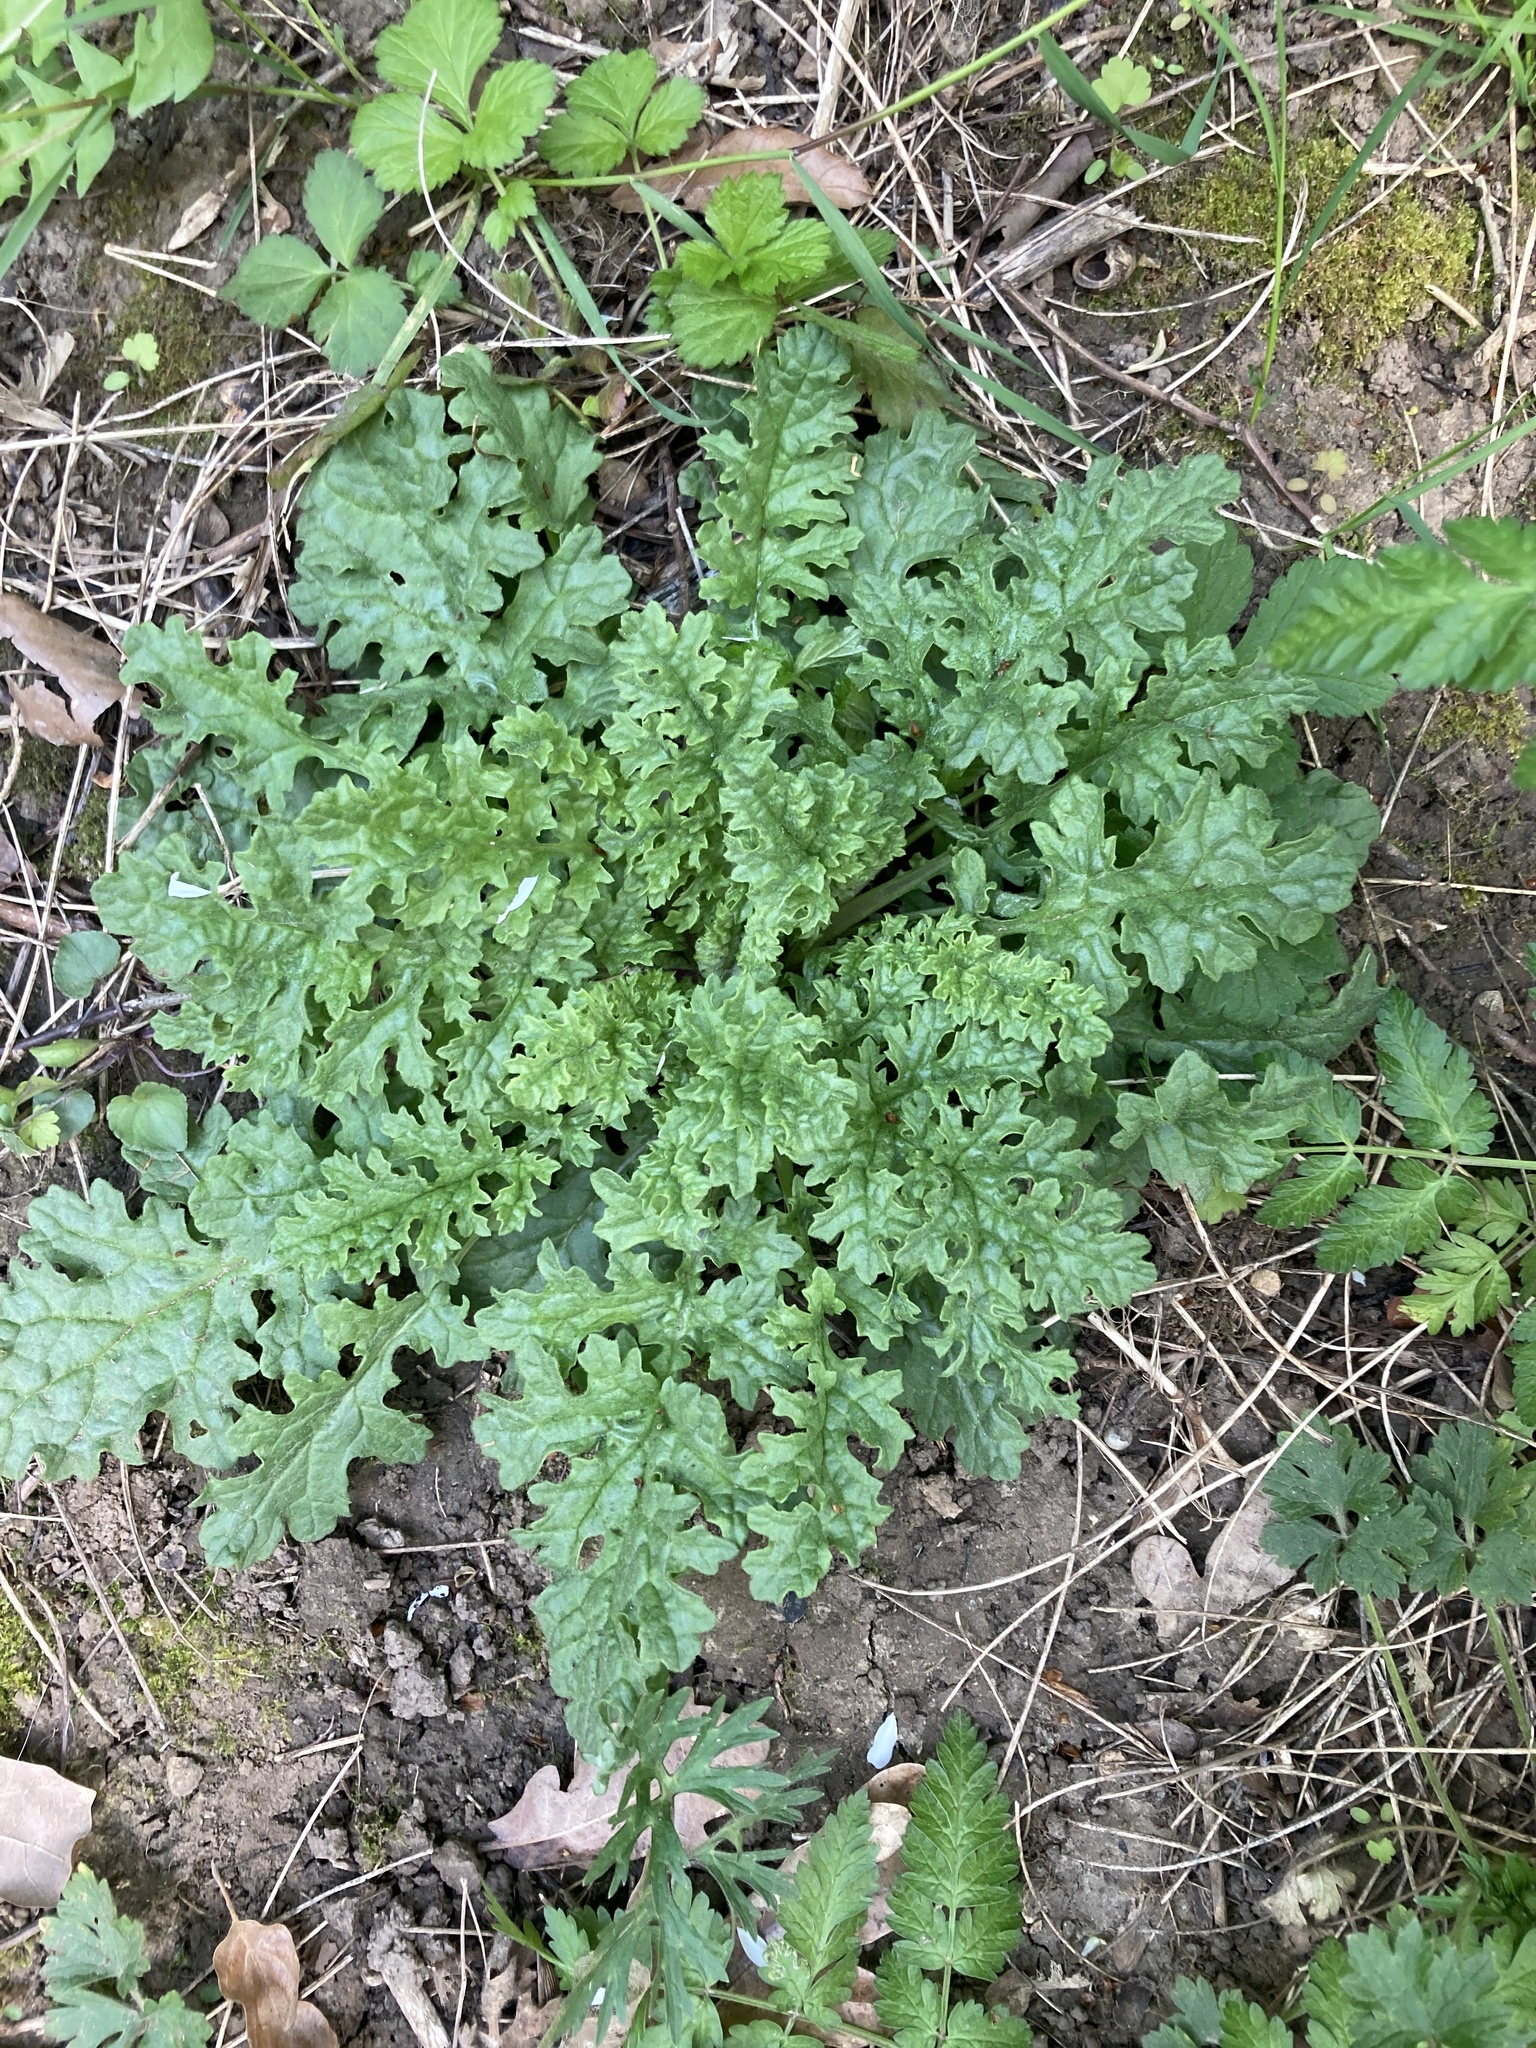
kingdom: Plantae
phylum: Tracheophyta
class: Magnoliopsida
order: Asterales
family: Asteraceae
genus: Jacobaea
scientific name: Jacobaea vulgaris
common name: Stinking willie
